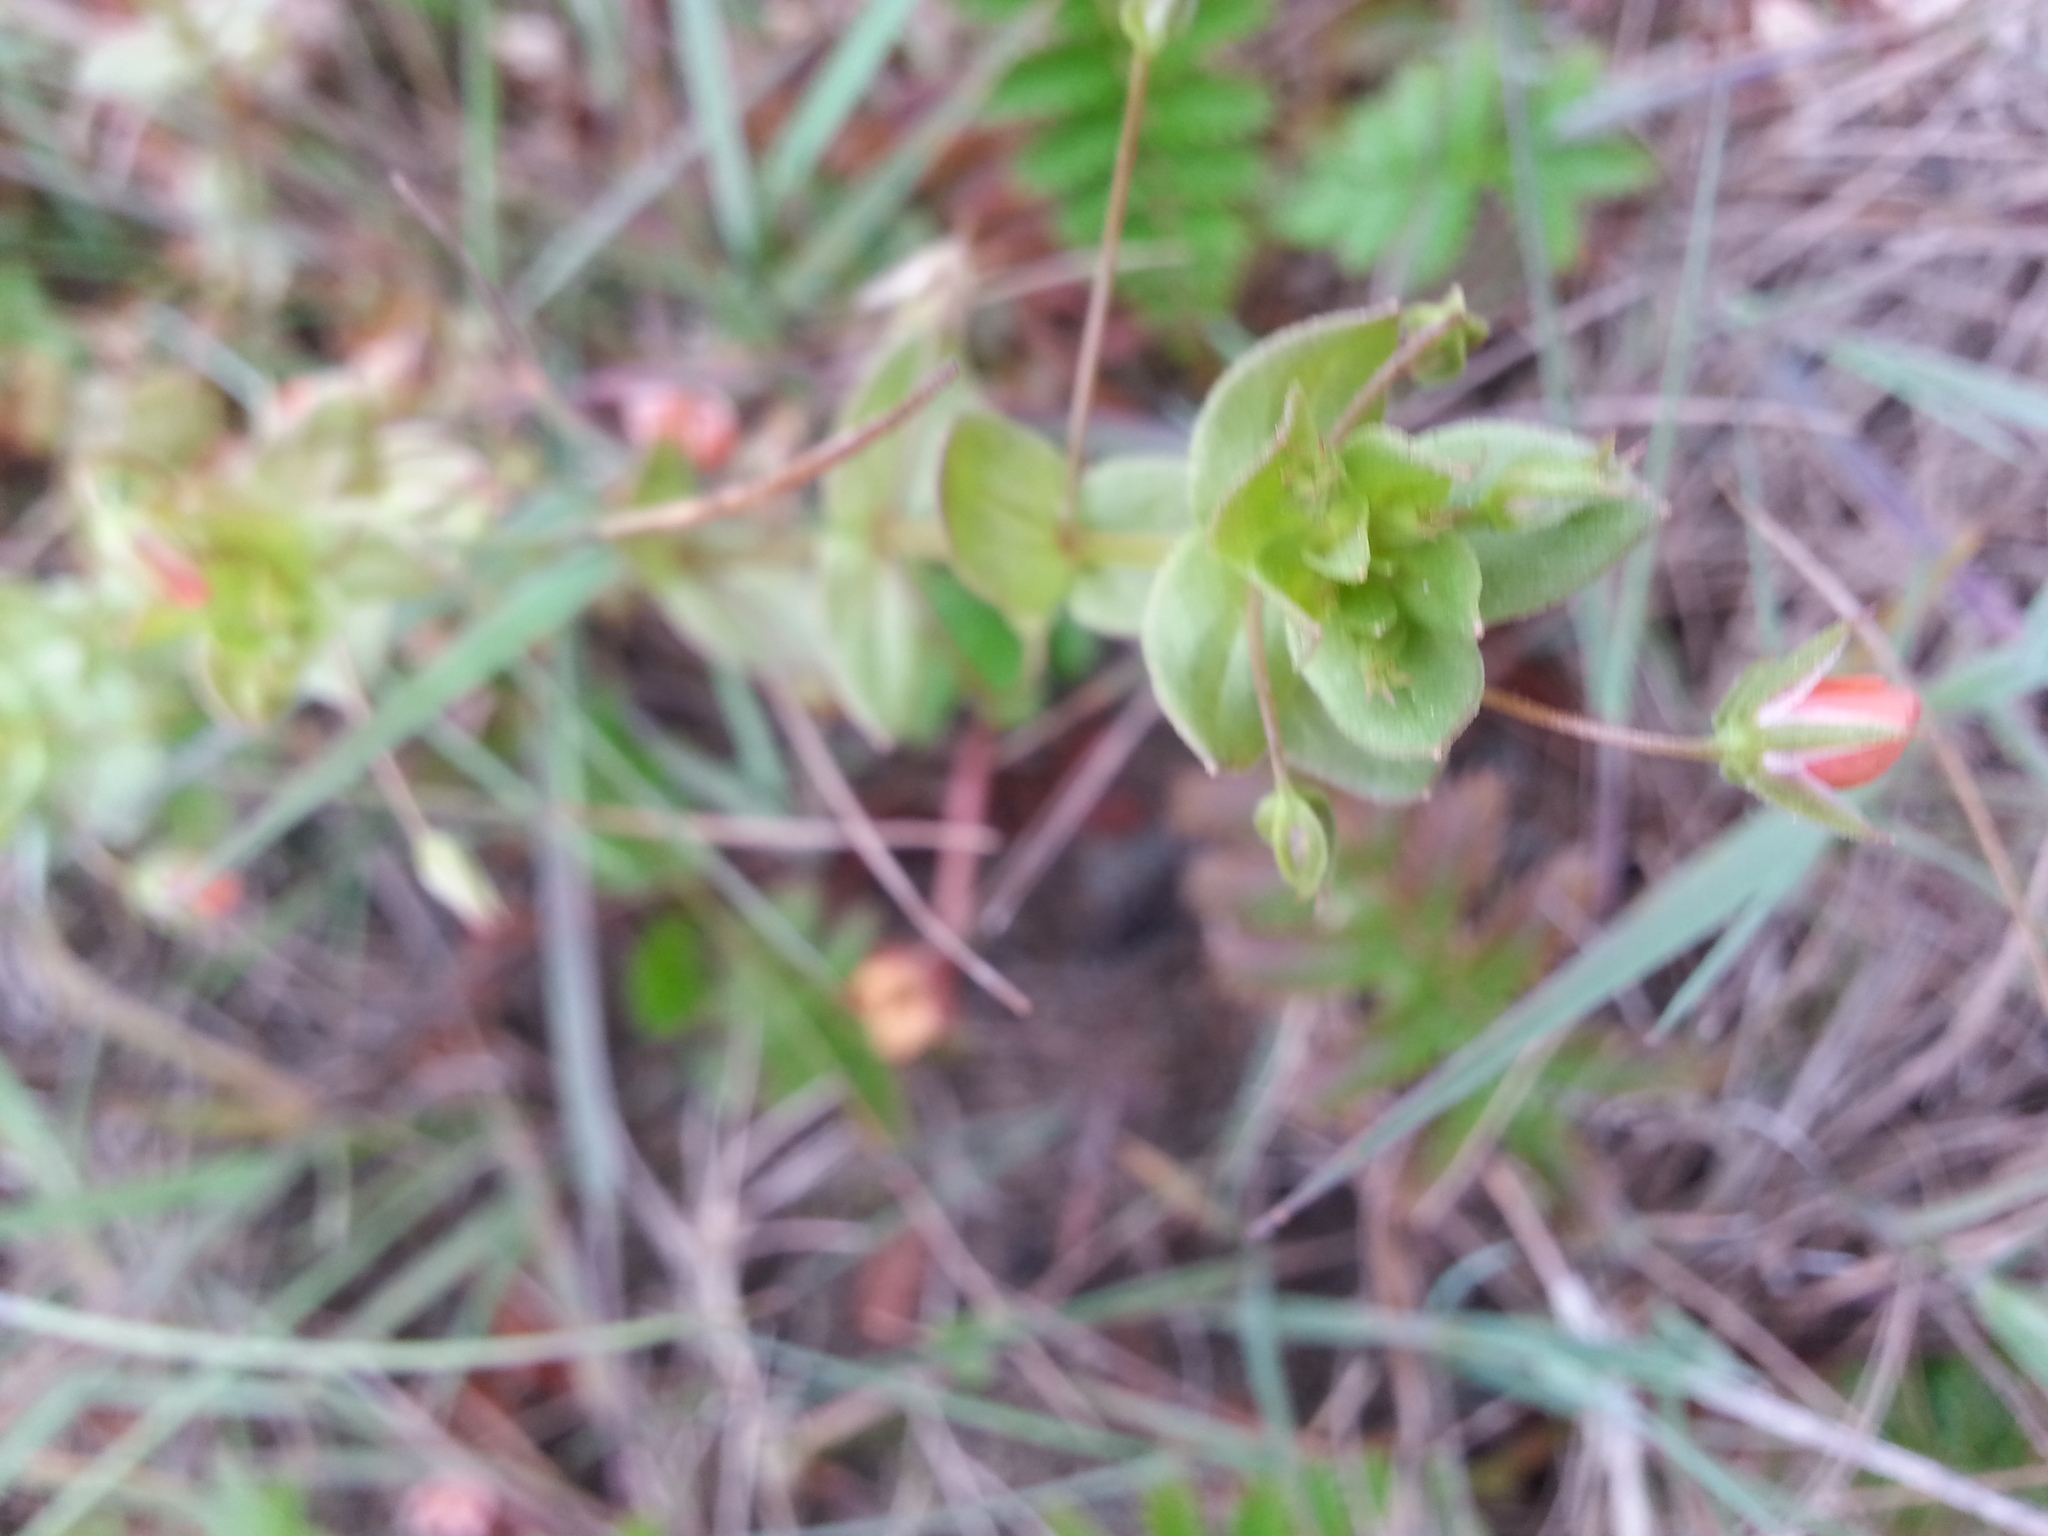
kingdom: Plantae
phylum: Tracheophyta
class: Pinopsida
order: Pinales
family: Cupressaceae
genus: Cupressus
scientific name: Cupressus macrocarpa
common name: Monterey cypress
